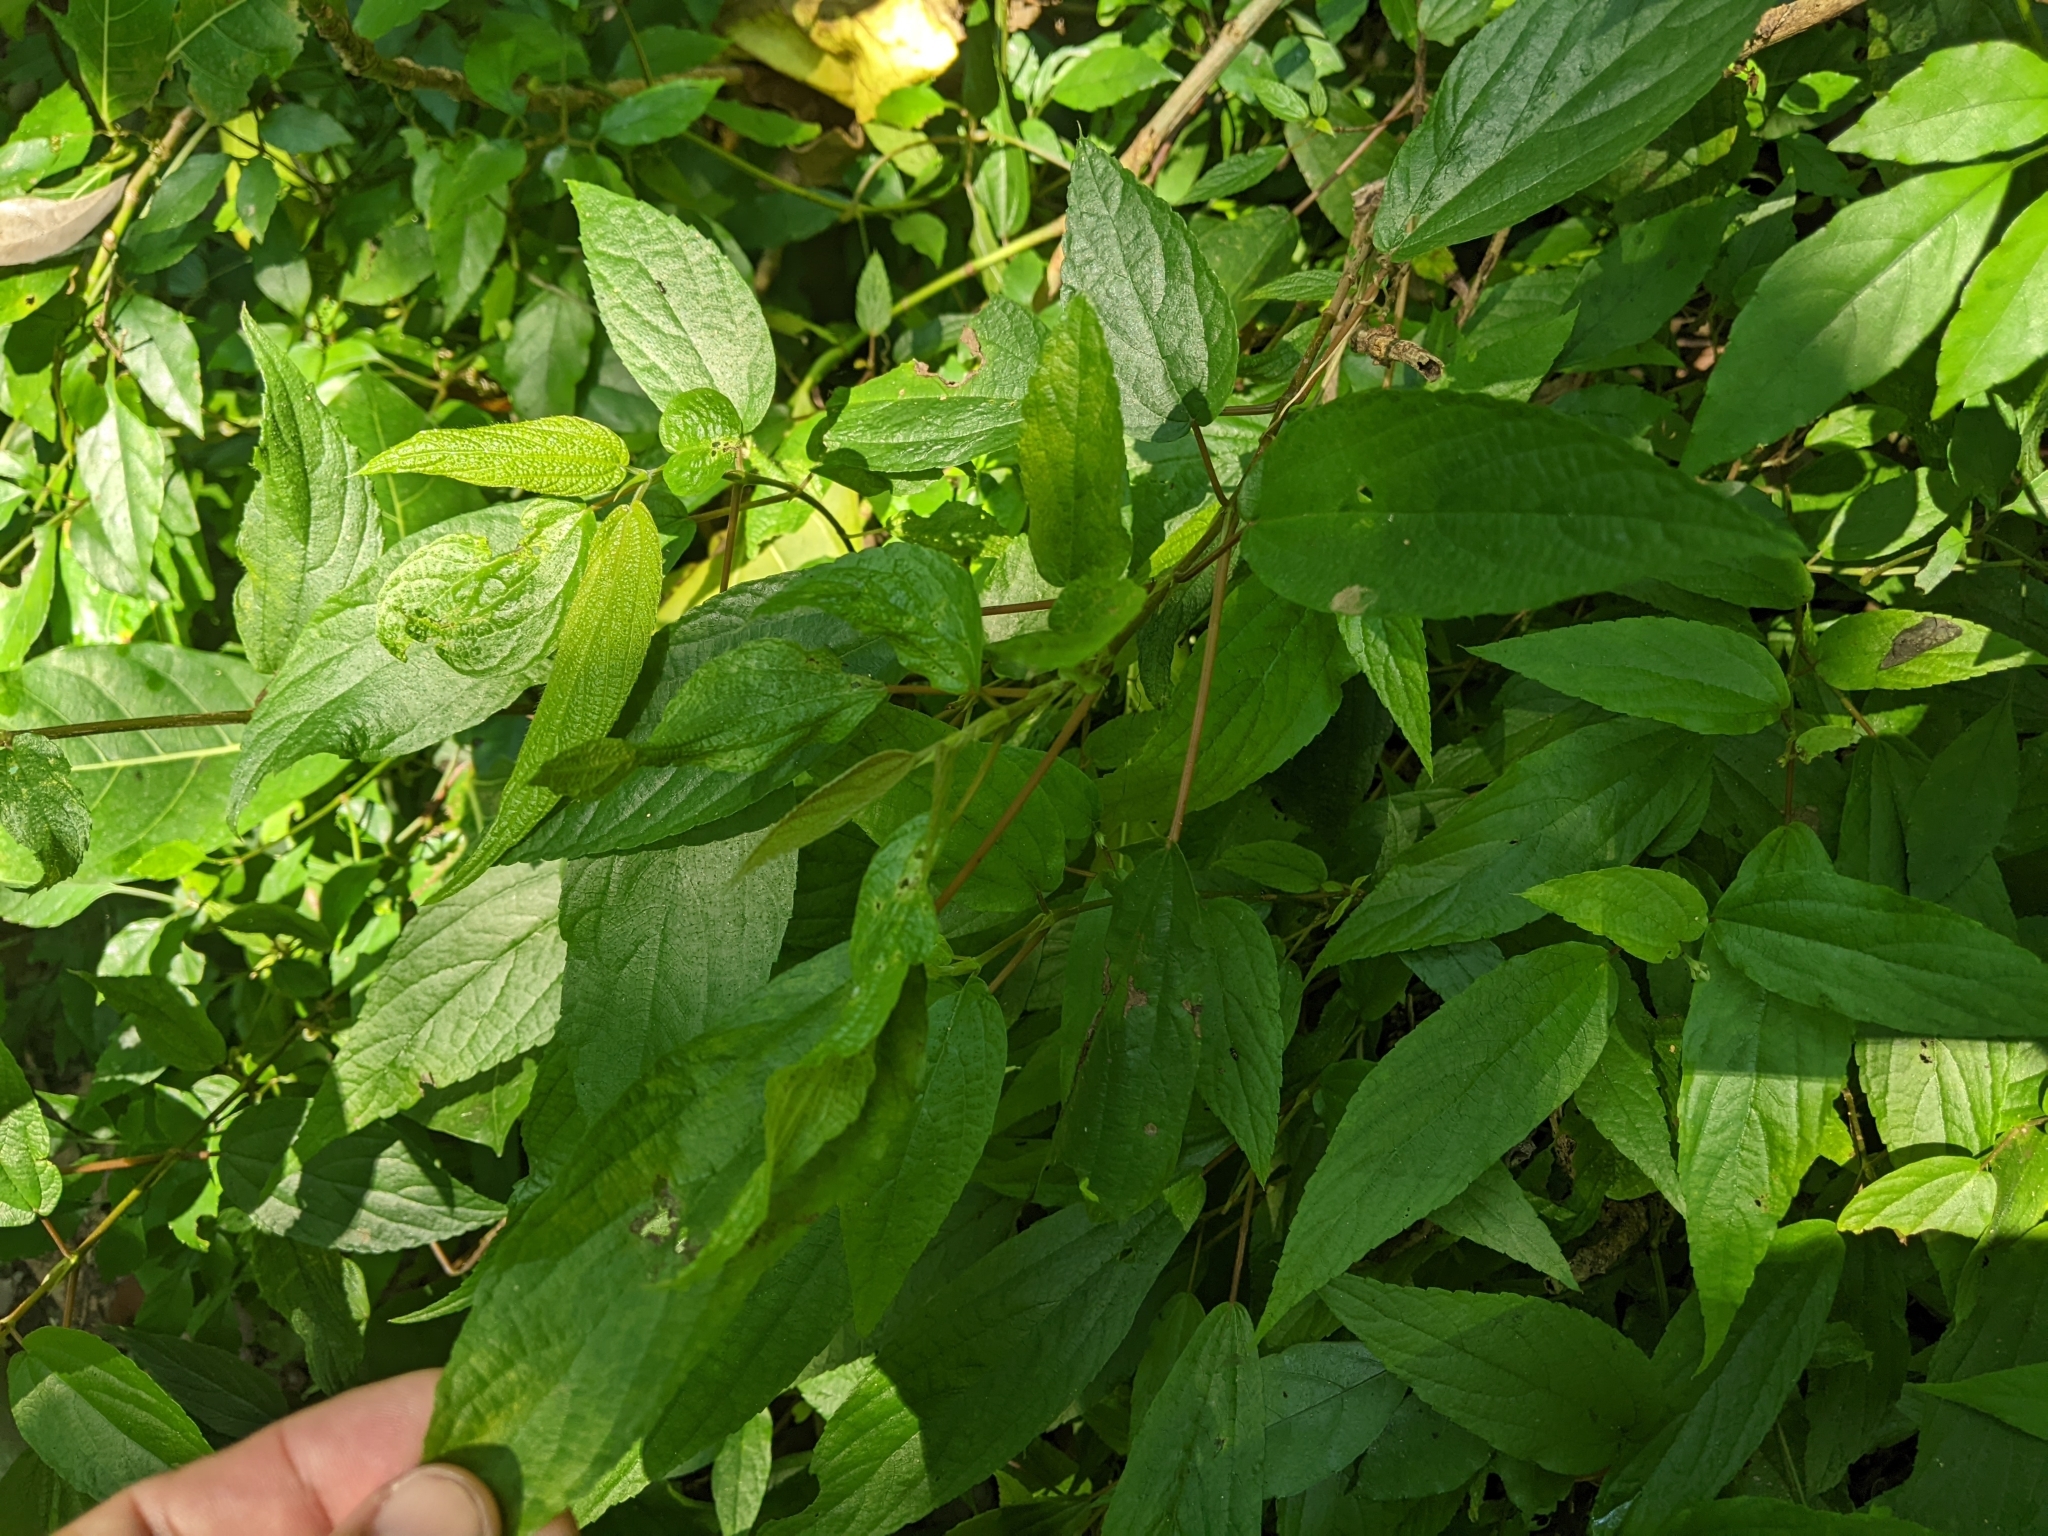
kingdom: Plantae
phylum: Tracheophyta
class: Magnoliopsida
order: Rosales
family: Urticaceae
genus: Boehmeria
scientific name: Boehmeria zollingeriana
